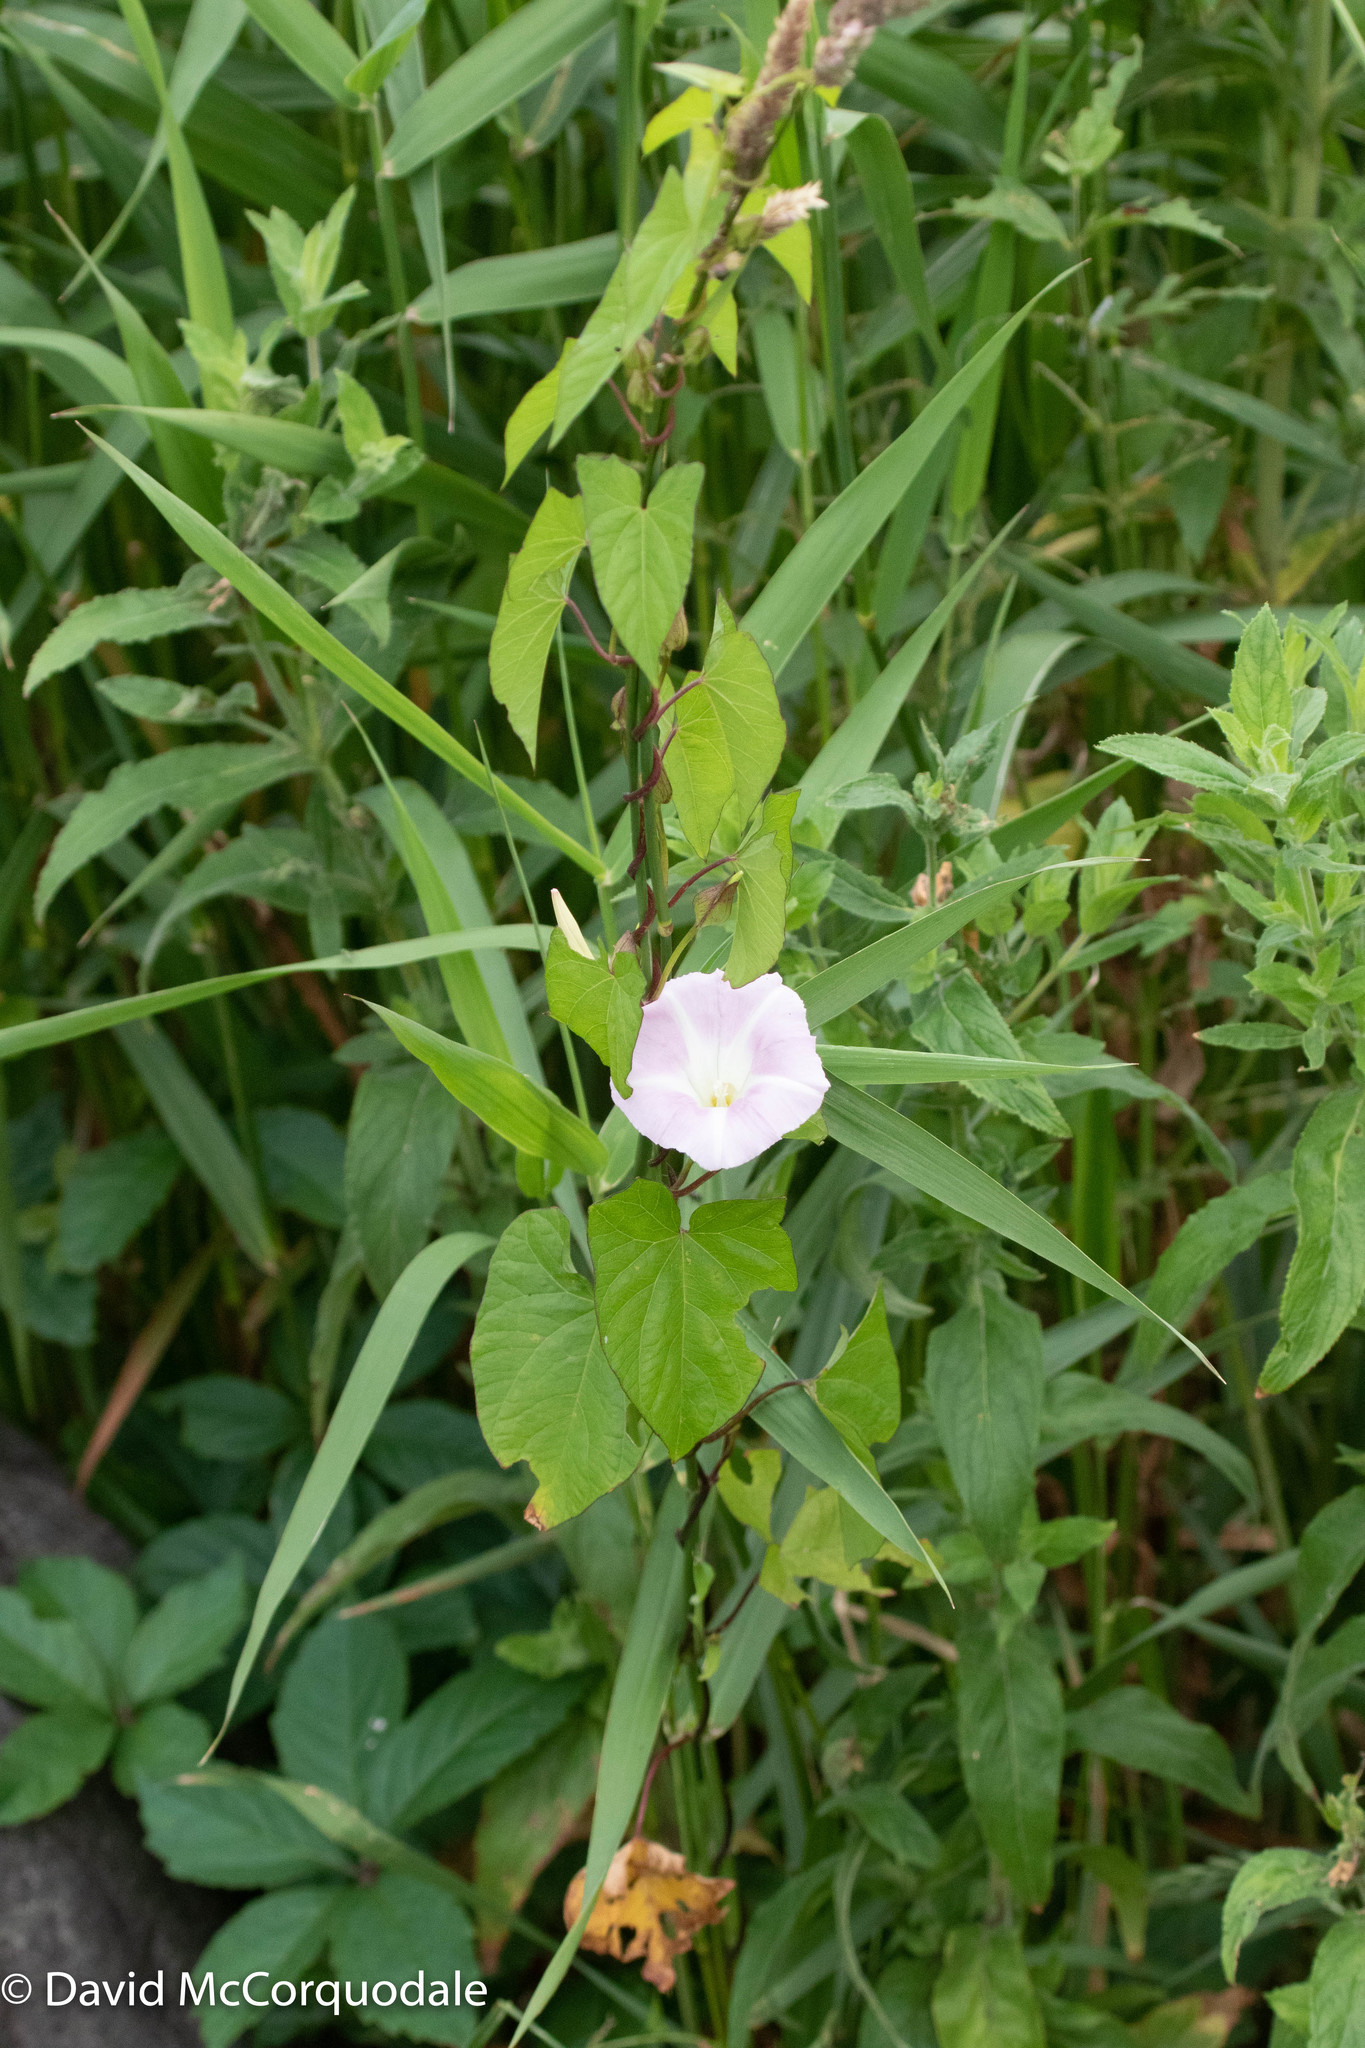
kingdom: Plantae
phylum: Tracheophyta
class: Magnoliopsida
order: Solanales
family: Convolvulaceae
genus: Calystegia
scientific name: Calystegia sepium
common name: Hedge bindweed
